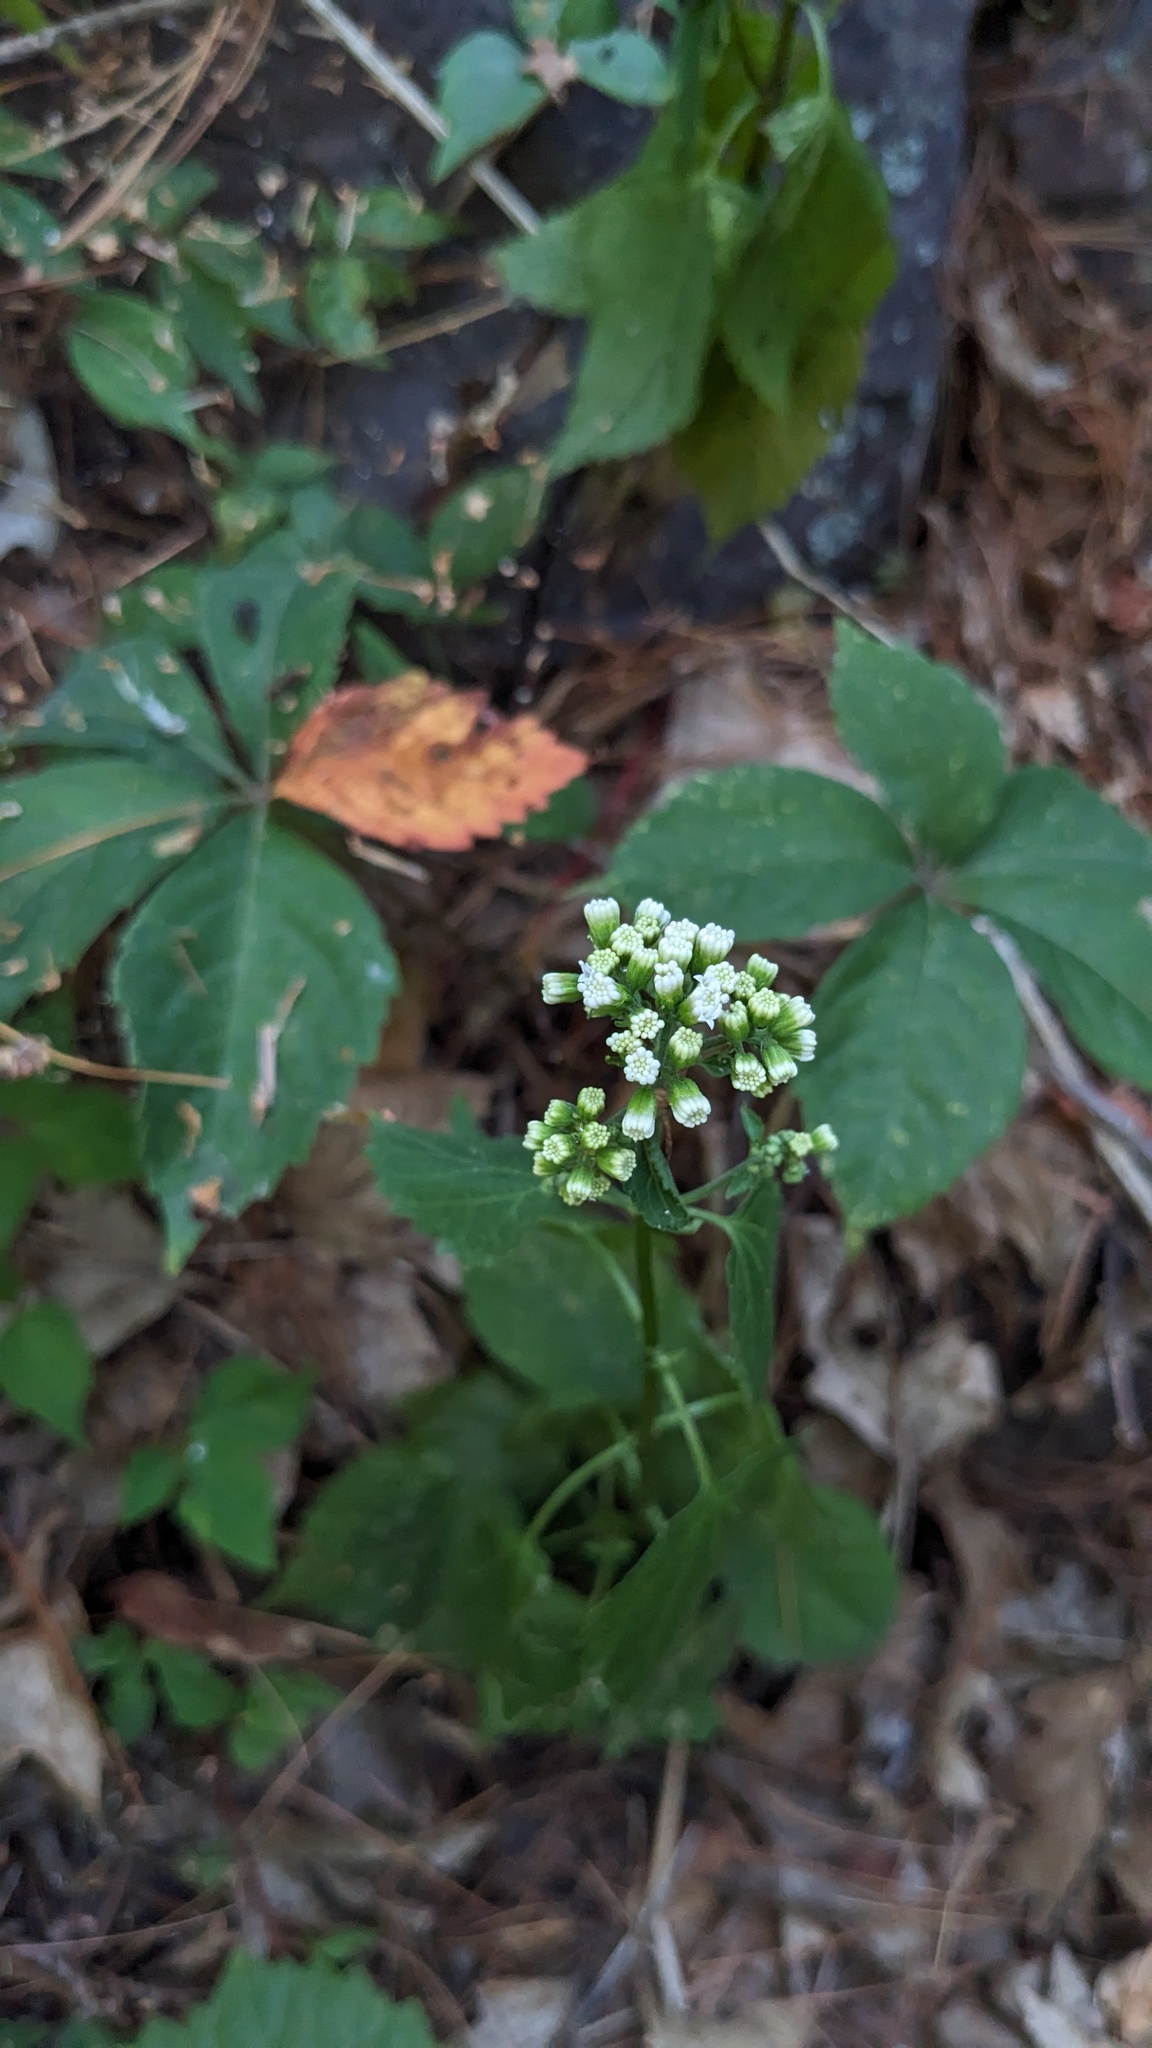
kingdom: Plantae
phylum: Tracheophyta
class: Magnoliopsida
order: Asterales
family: Asteraceae
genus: Ageratina
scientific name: Ageratina altissima
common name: White snakeroot
